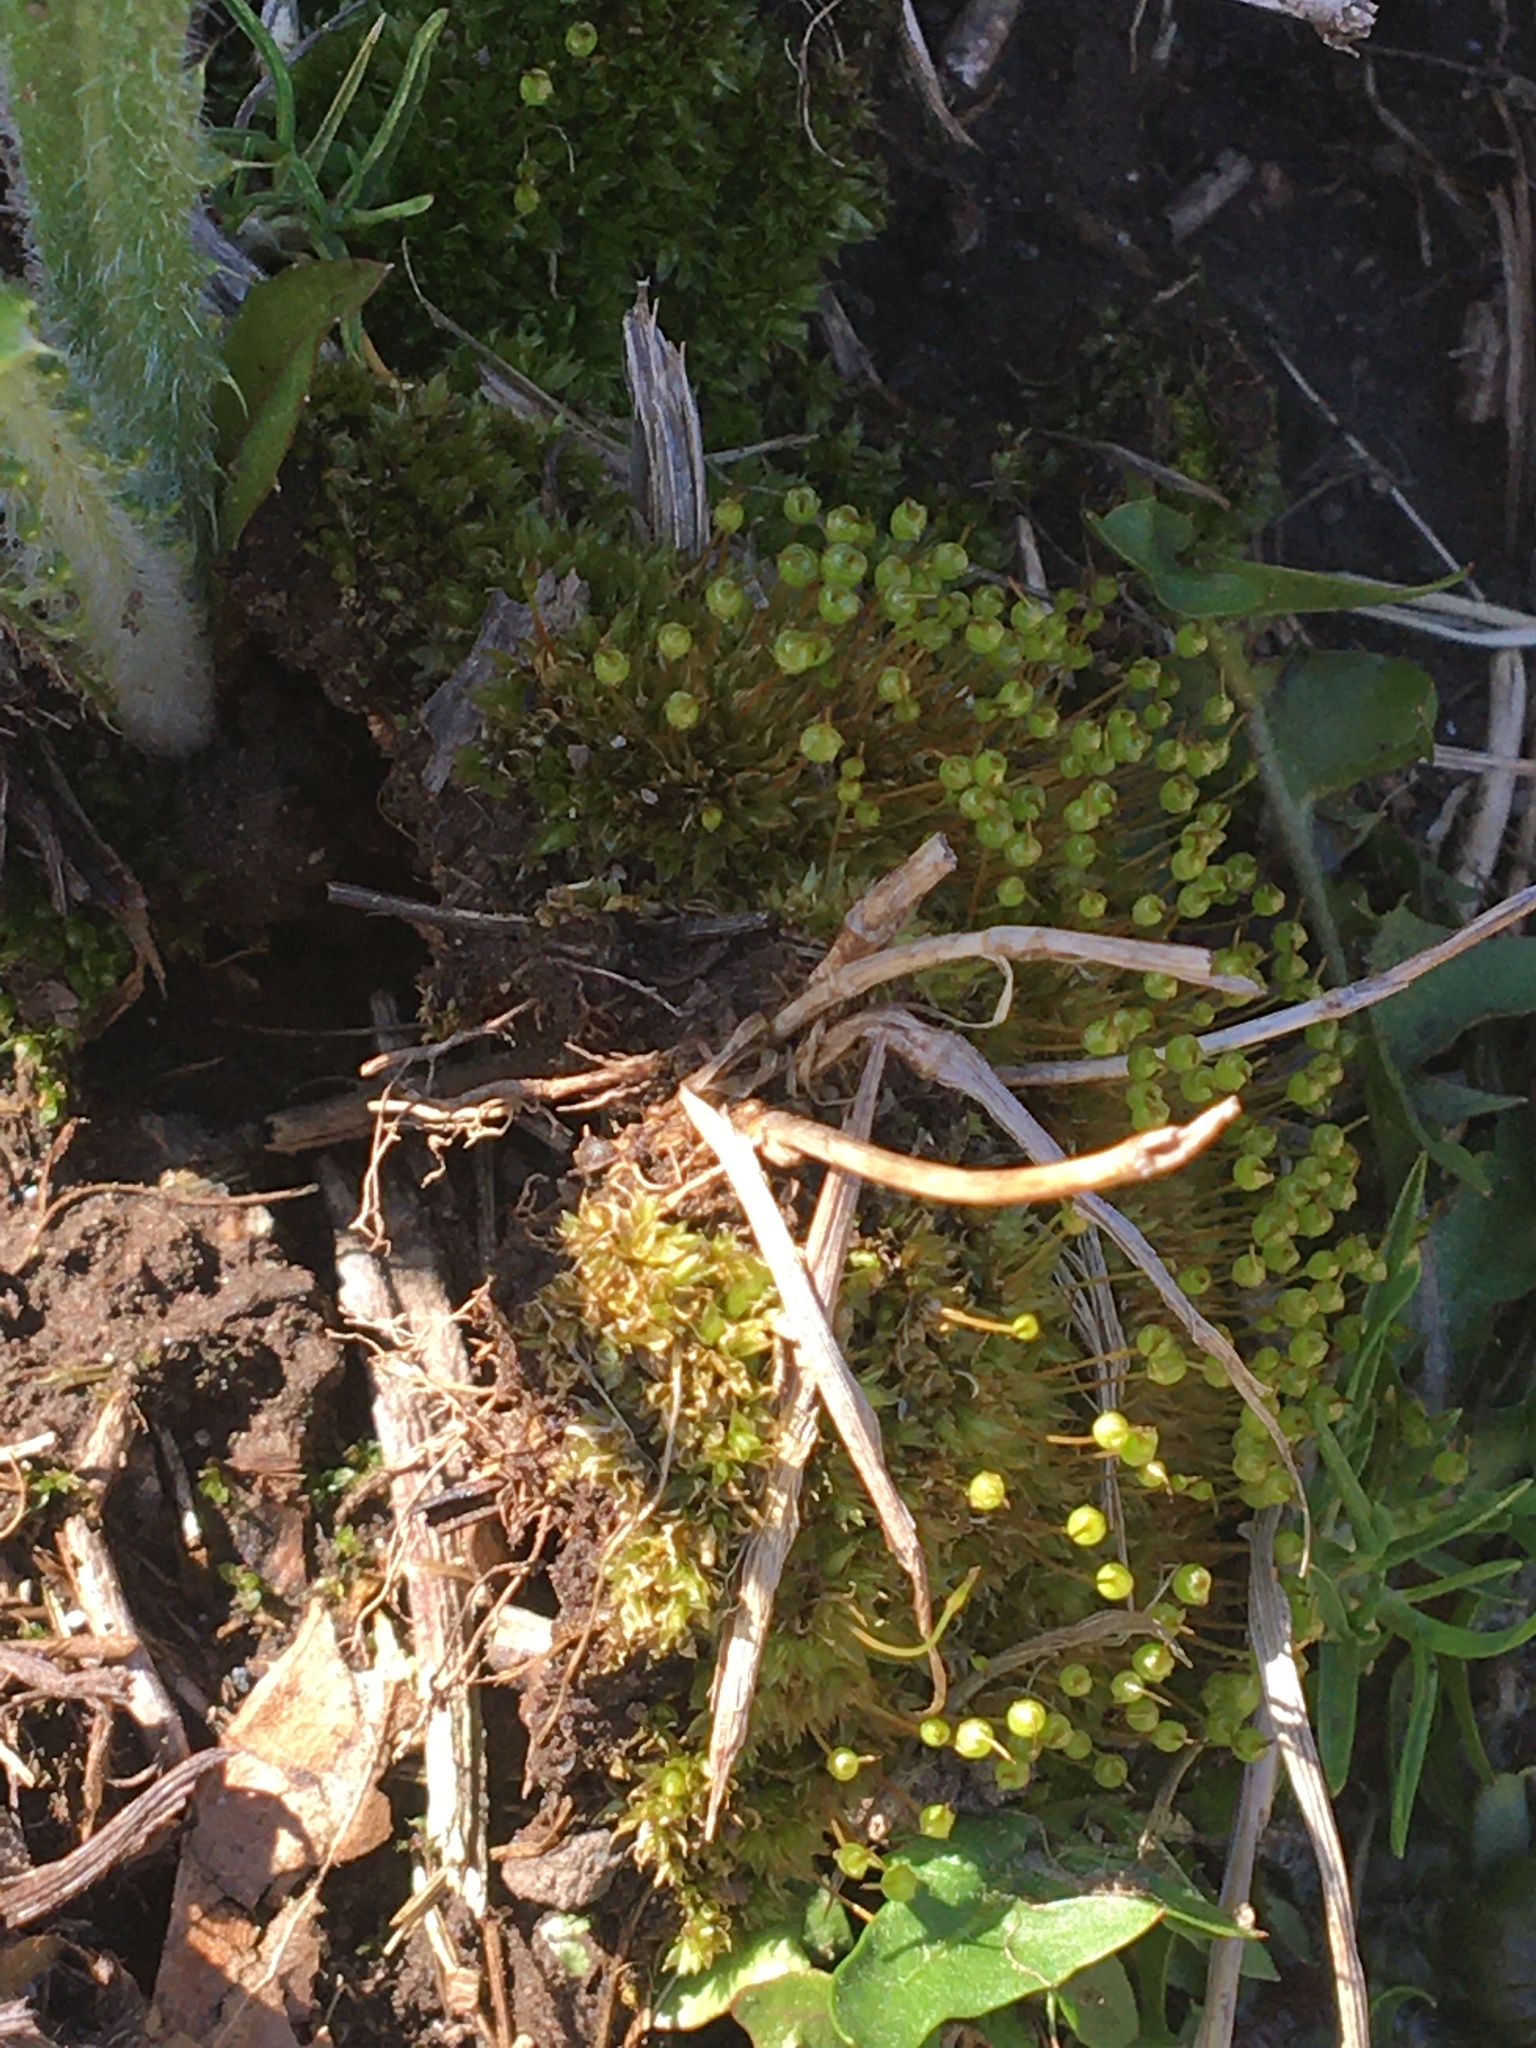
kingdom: Plantae
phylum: Bryophyta
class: Bryopsida
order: Funariales
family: Funariaceae
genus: Physcomitrium
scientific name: Physcomitrium pyriforme
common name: Common bladder-moss
